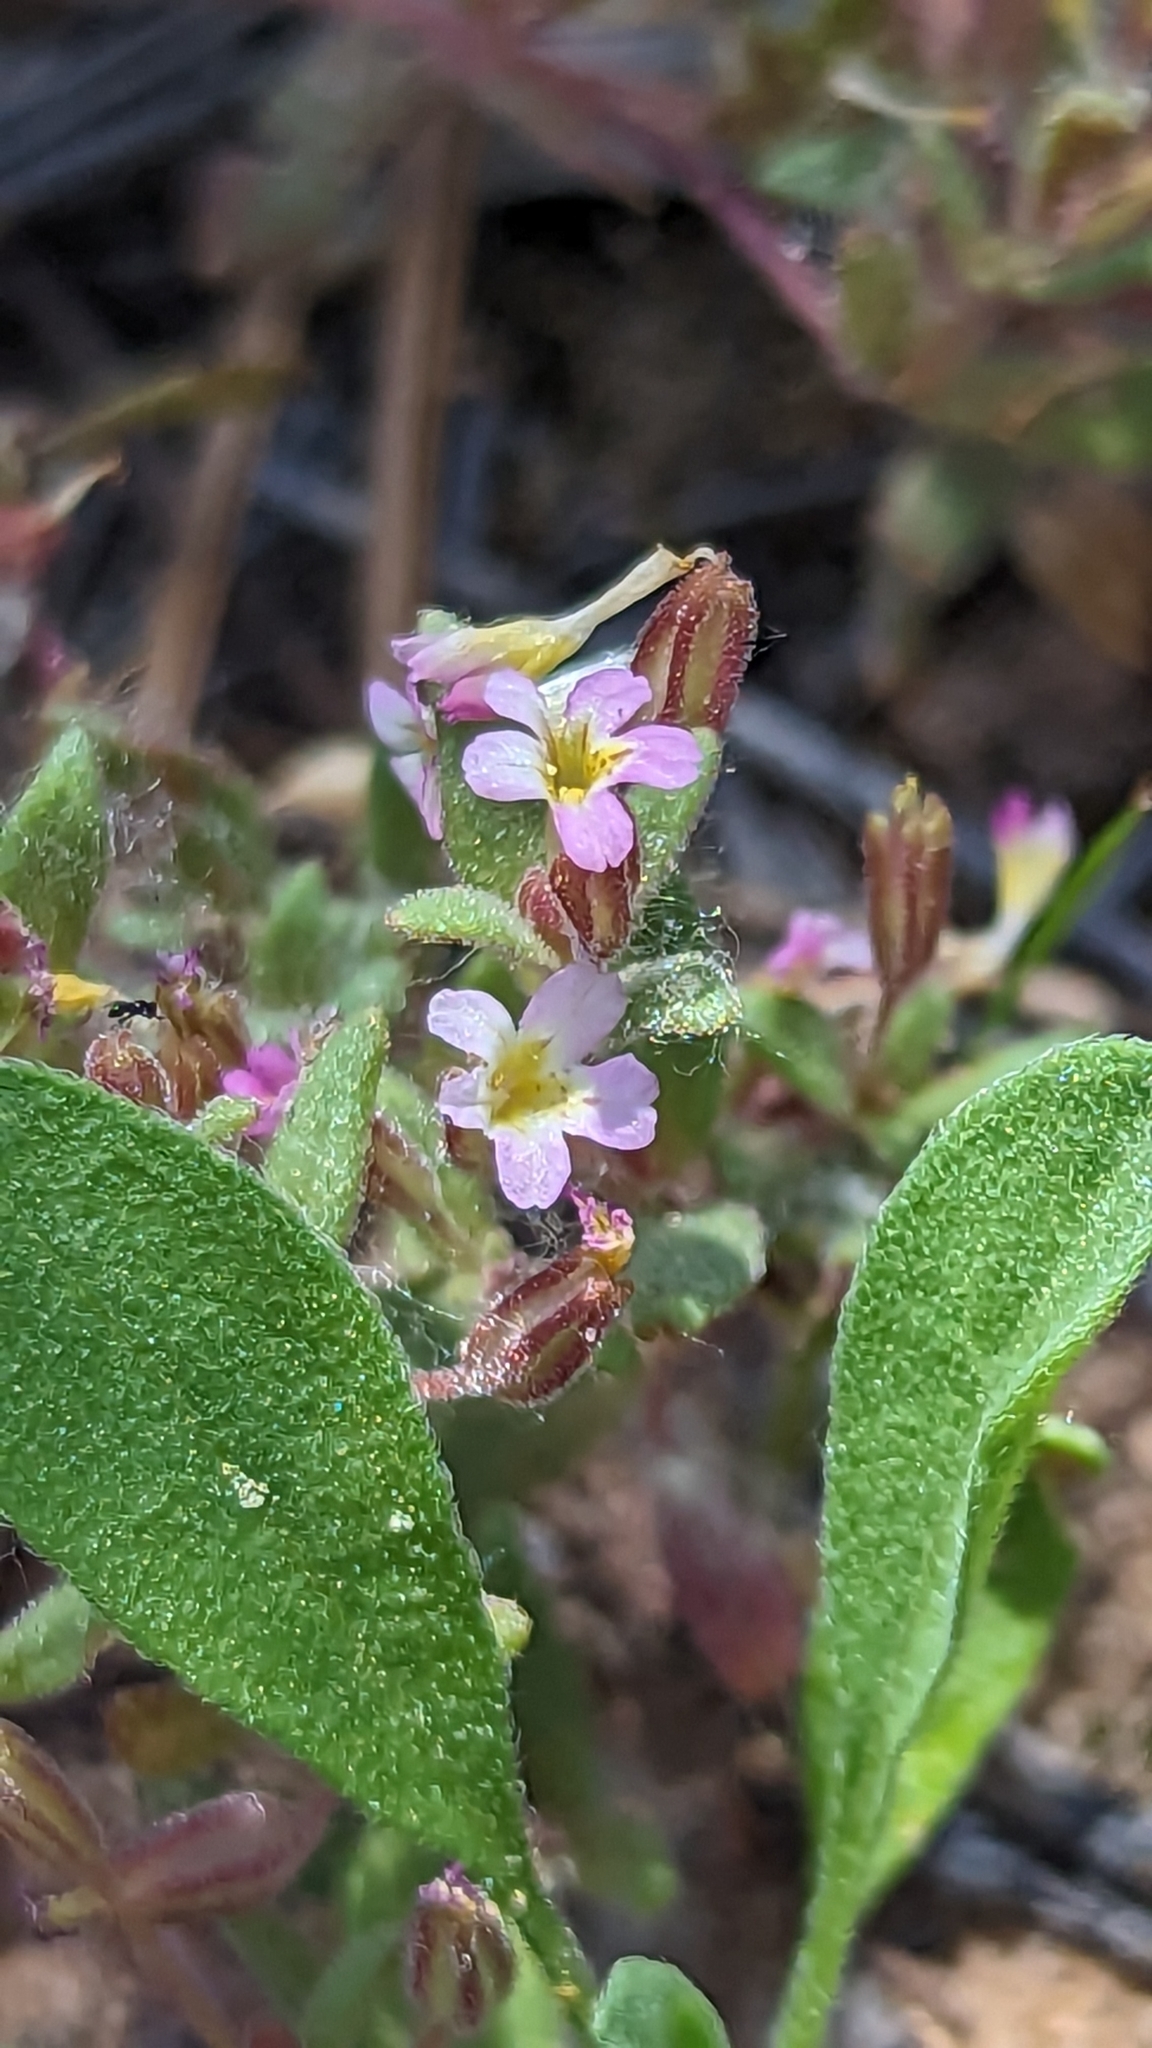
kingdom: Plantae
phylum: Tracheophyta
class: Magnoliopsida
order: Lamiales
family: Phrymaceae
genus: Erythranthe
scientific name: Erythranthe rubella
